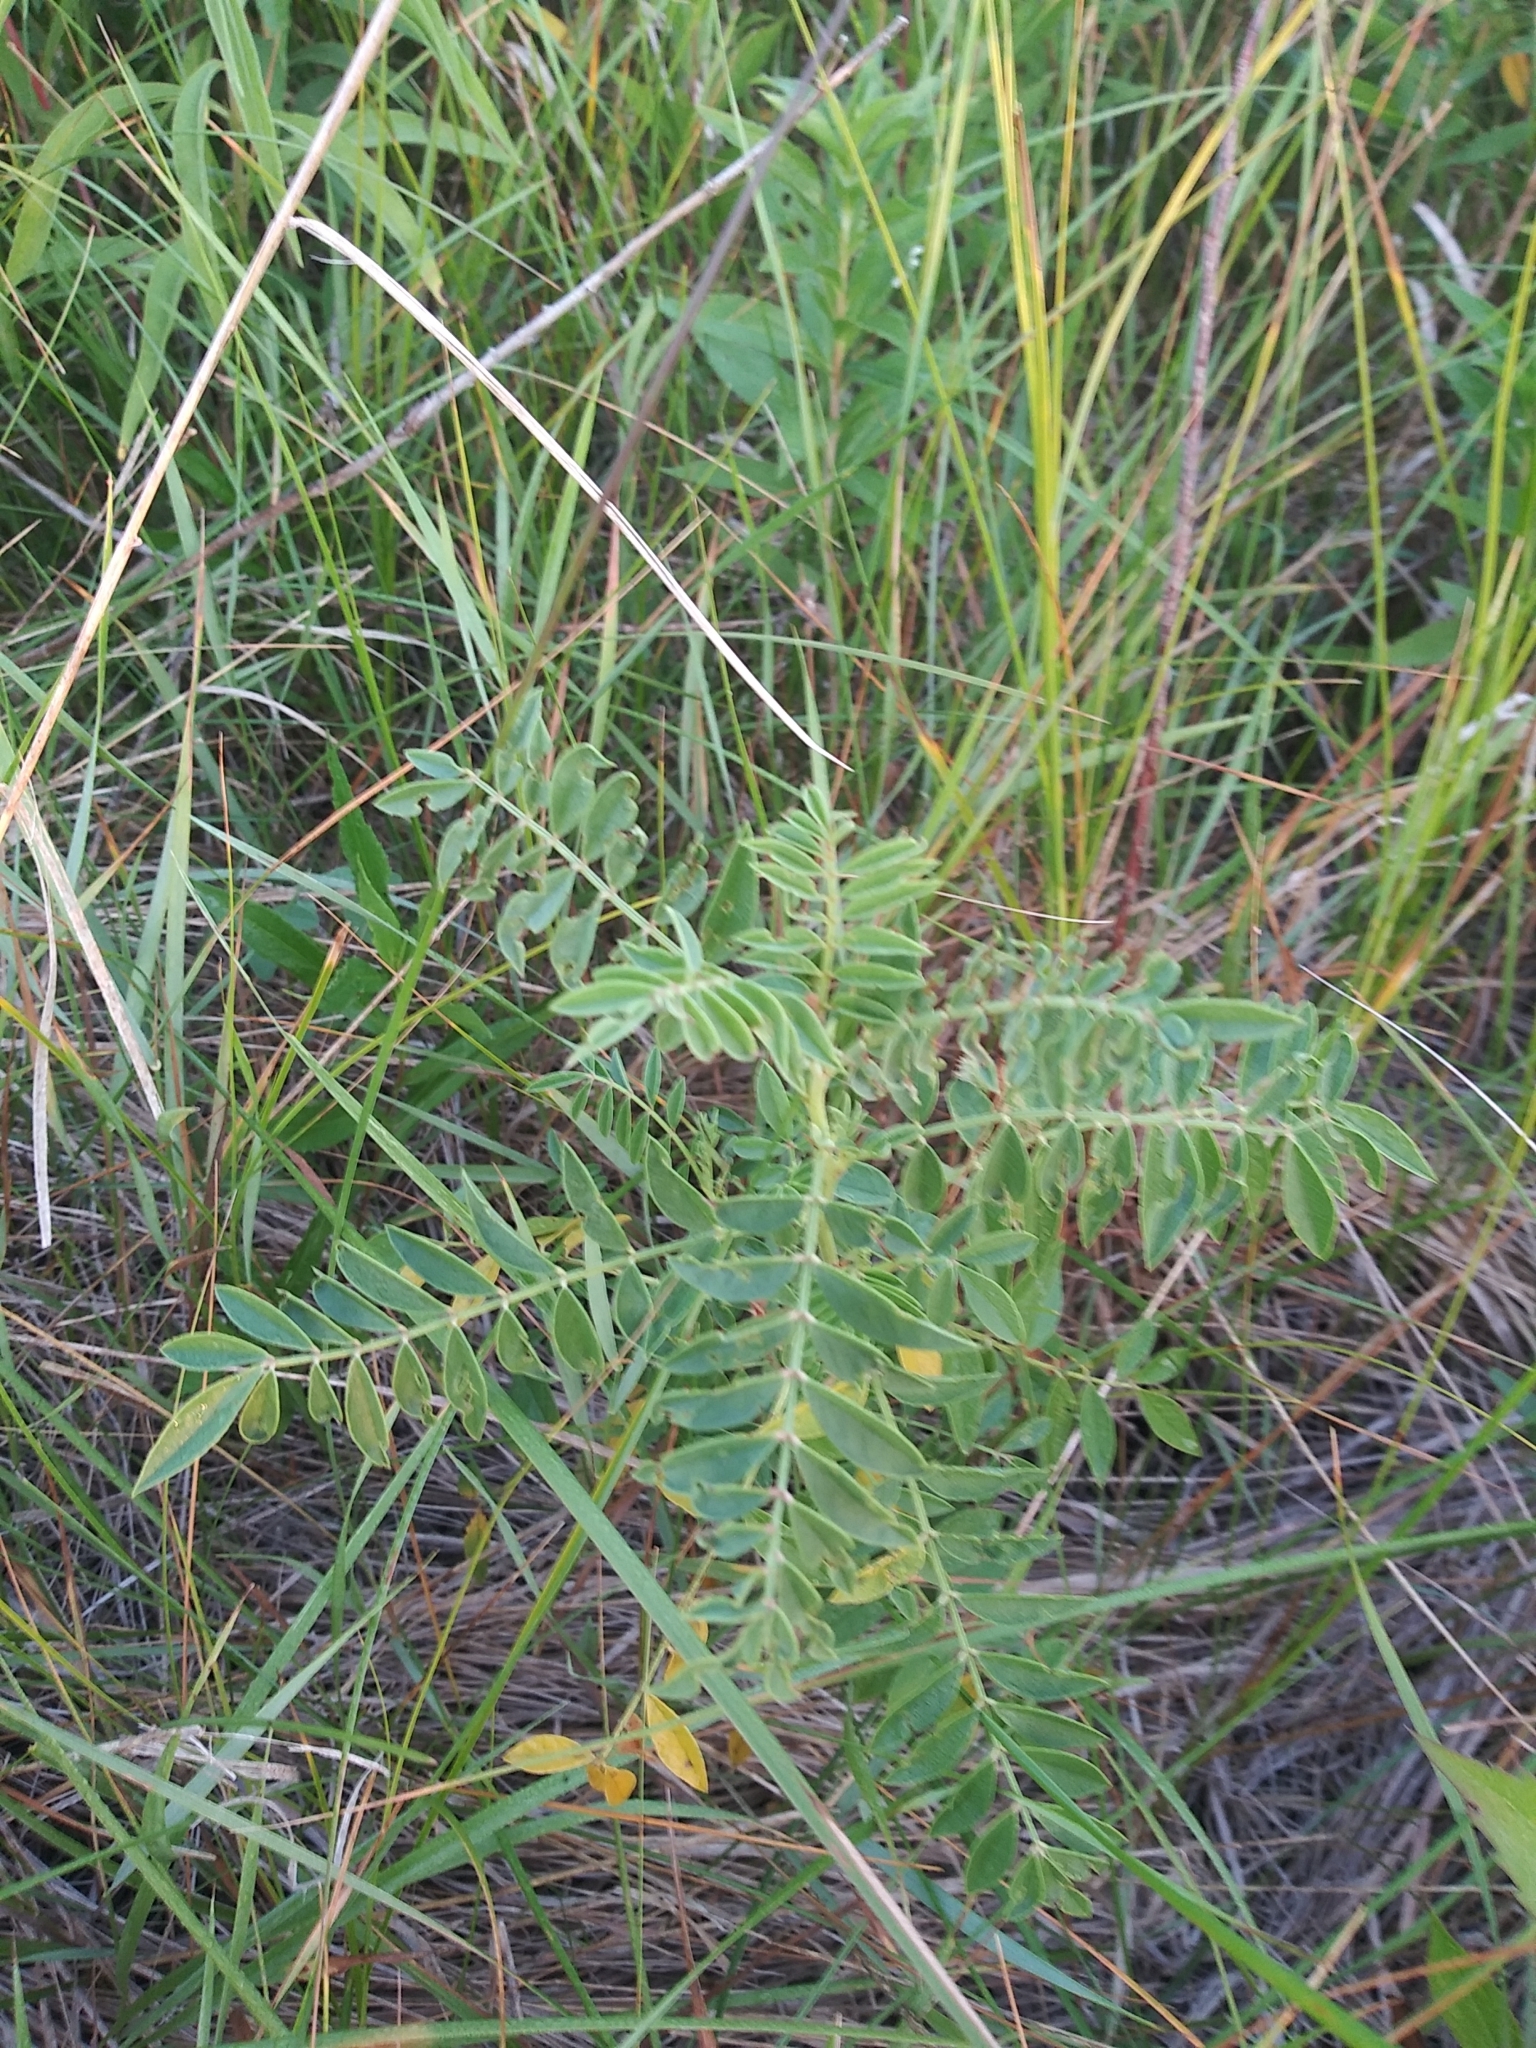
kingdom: Plantae
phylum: Tracheophyta
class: Magnoliopsida
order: Fabales
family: Fabaceae
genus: Amorpha
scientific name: Amorpha canescens
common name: Leadplant
